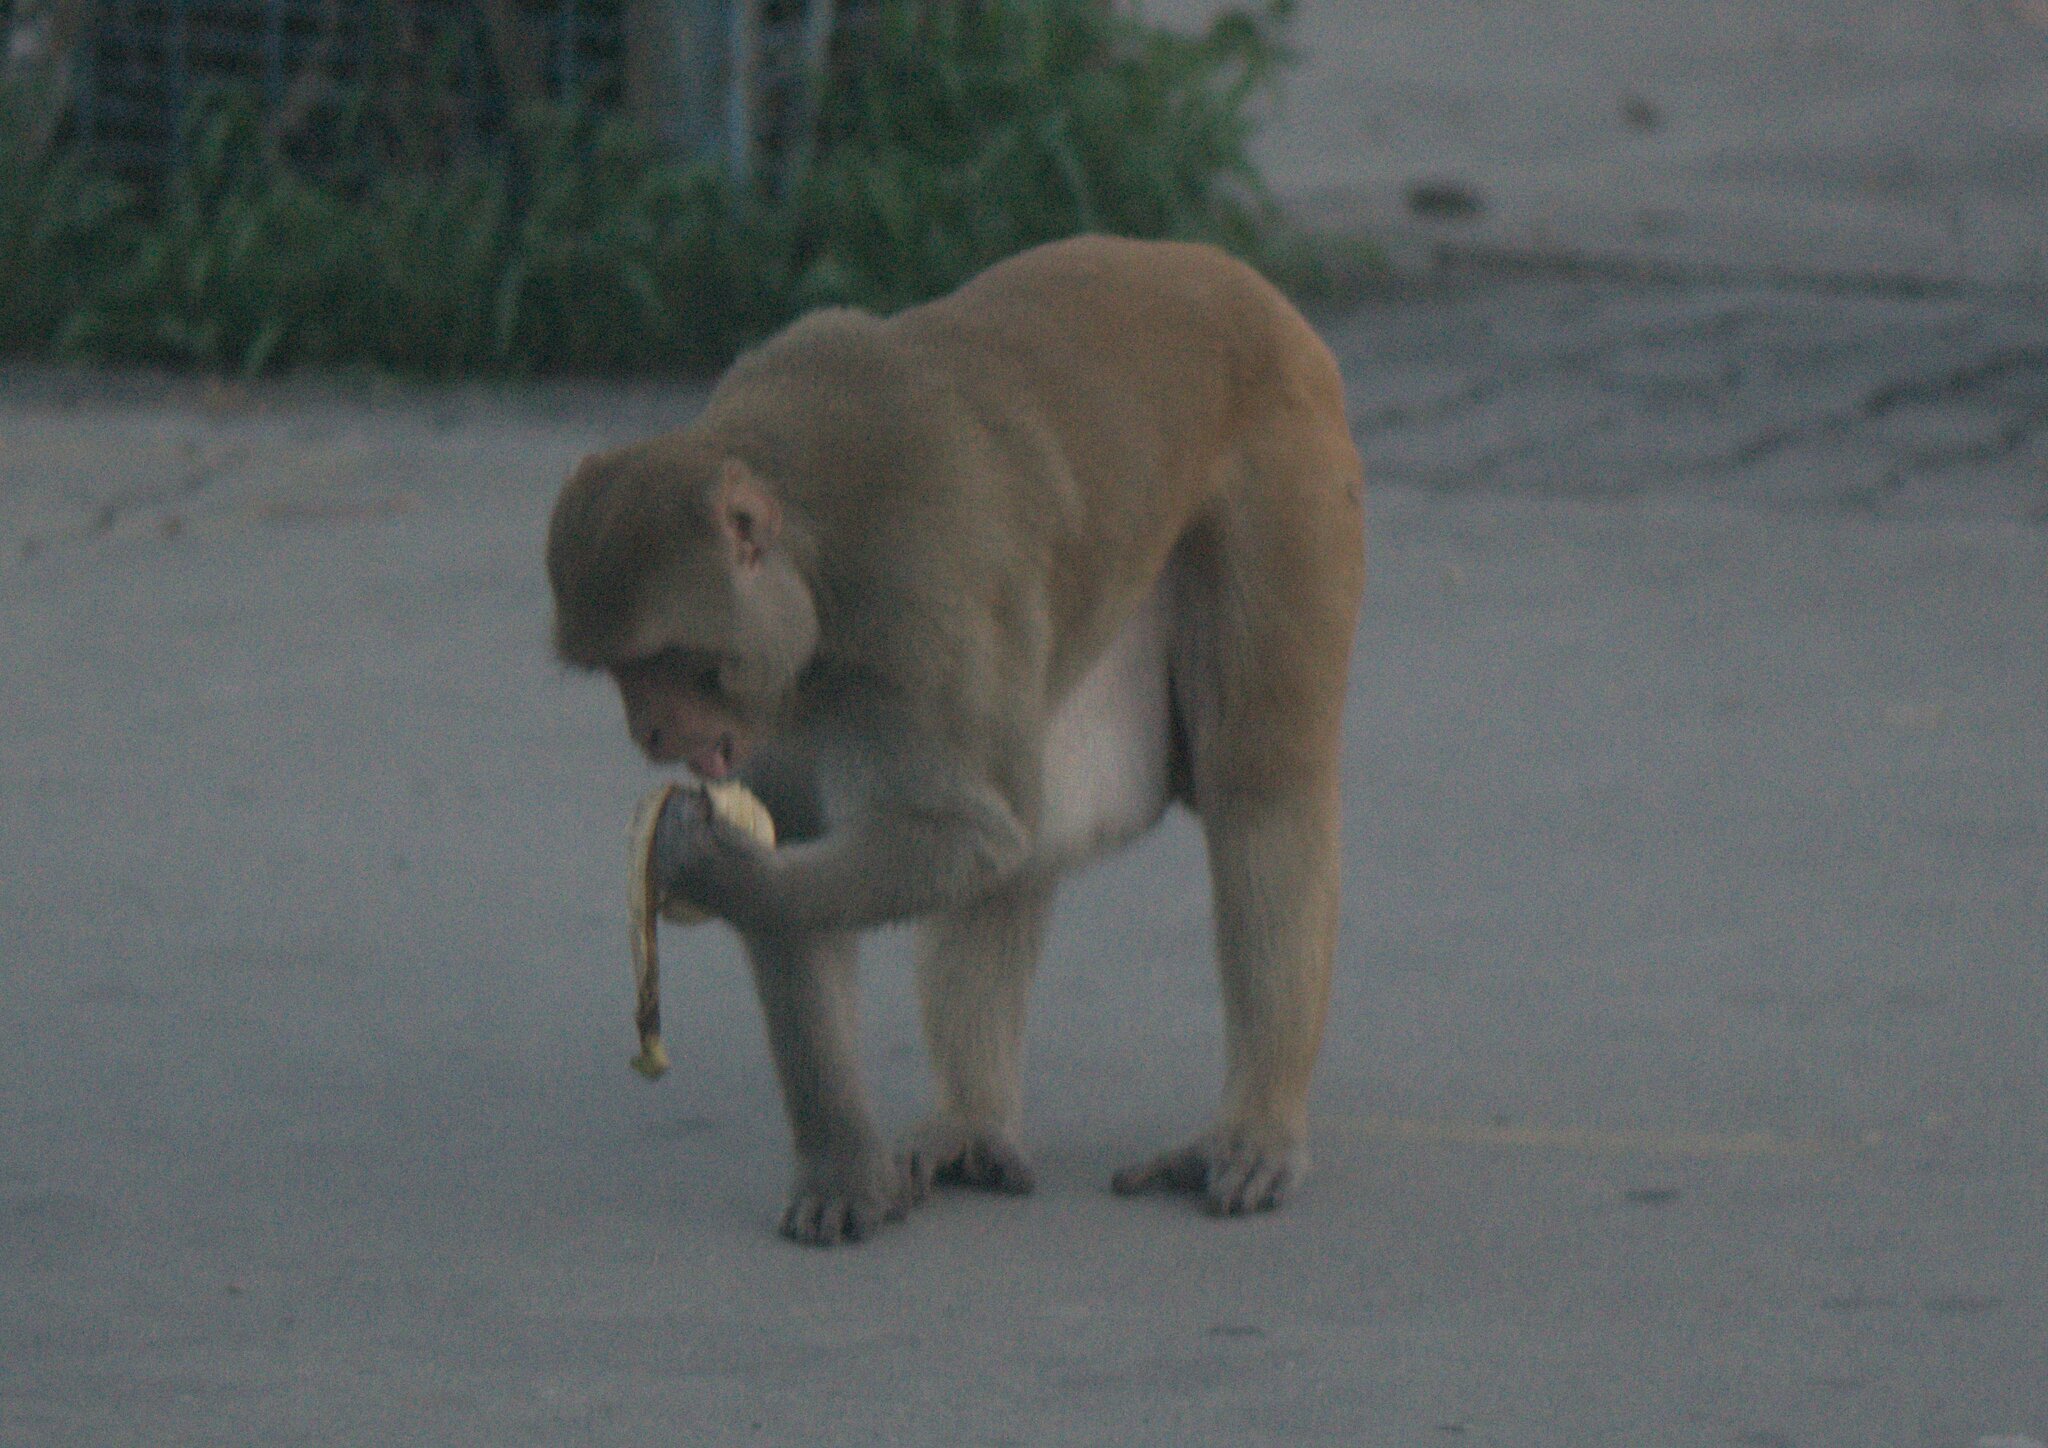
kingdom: Animalia
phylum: Chordata
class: Mammalia
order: Primates
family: Cercopithecidae
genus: Macaca
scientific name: Macaca mulatta
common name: Rhesus monkey
